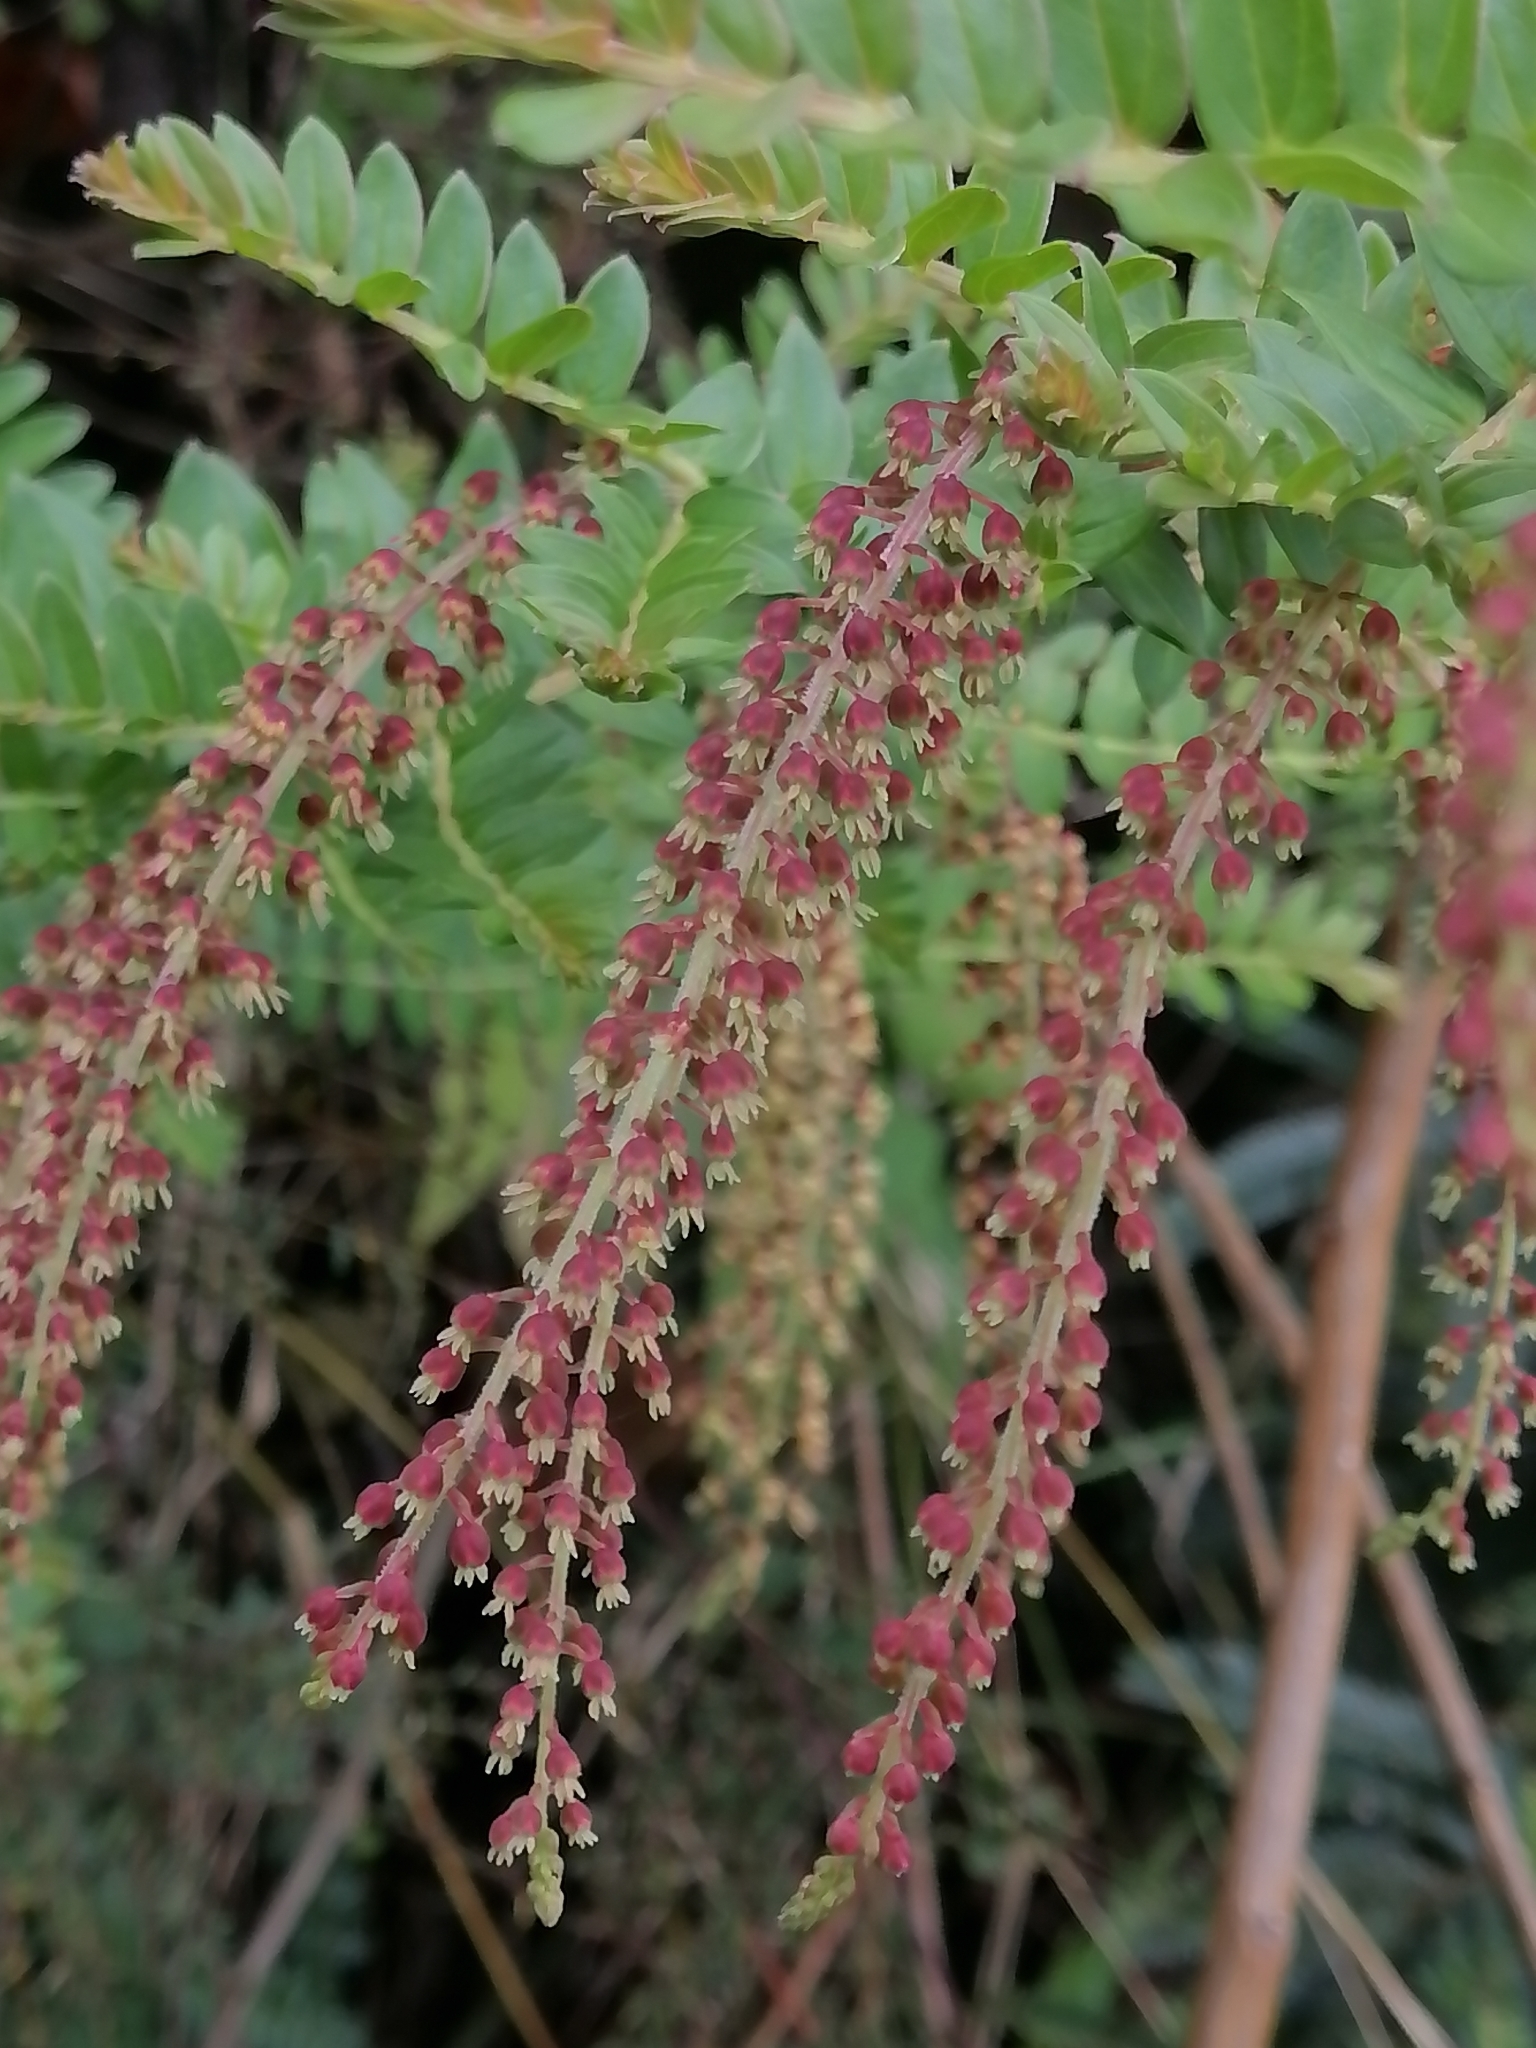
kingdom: Plantae
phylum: Tracheophyta
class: Magnoliopsida
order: Cucurbitales
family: Coriariaceae
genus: Coriaria
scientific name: Coriaria ruscifolia
